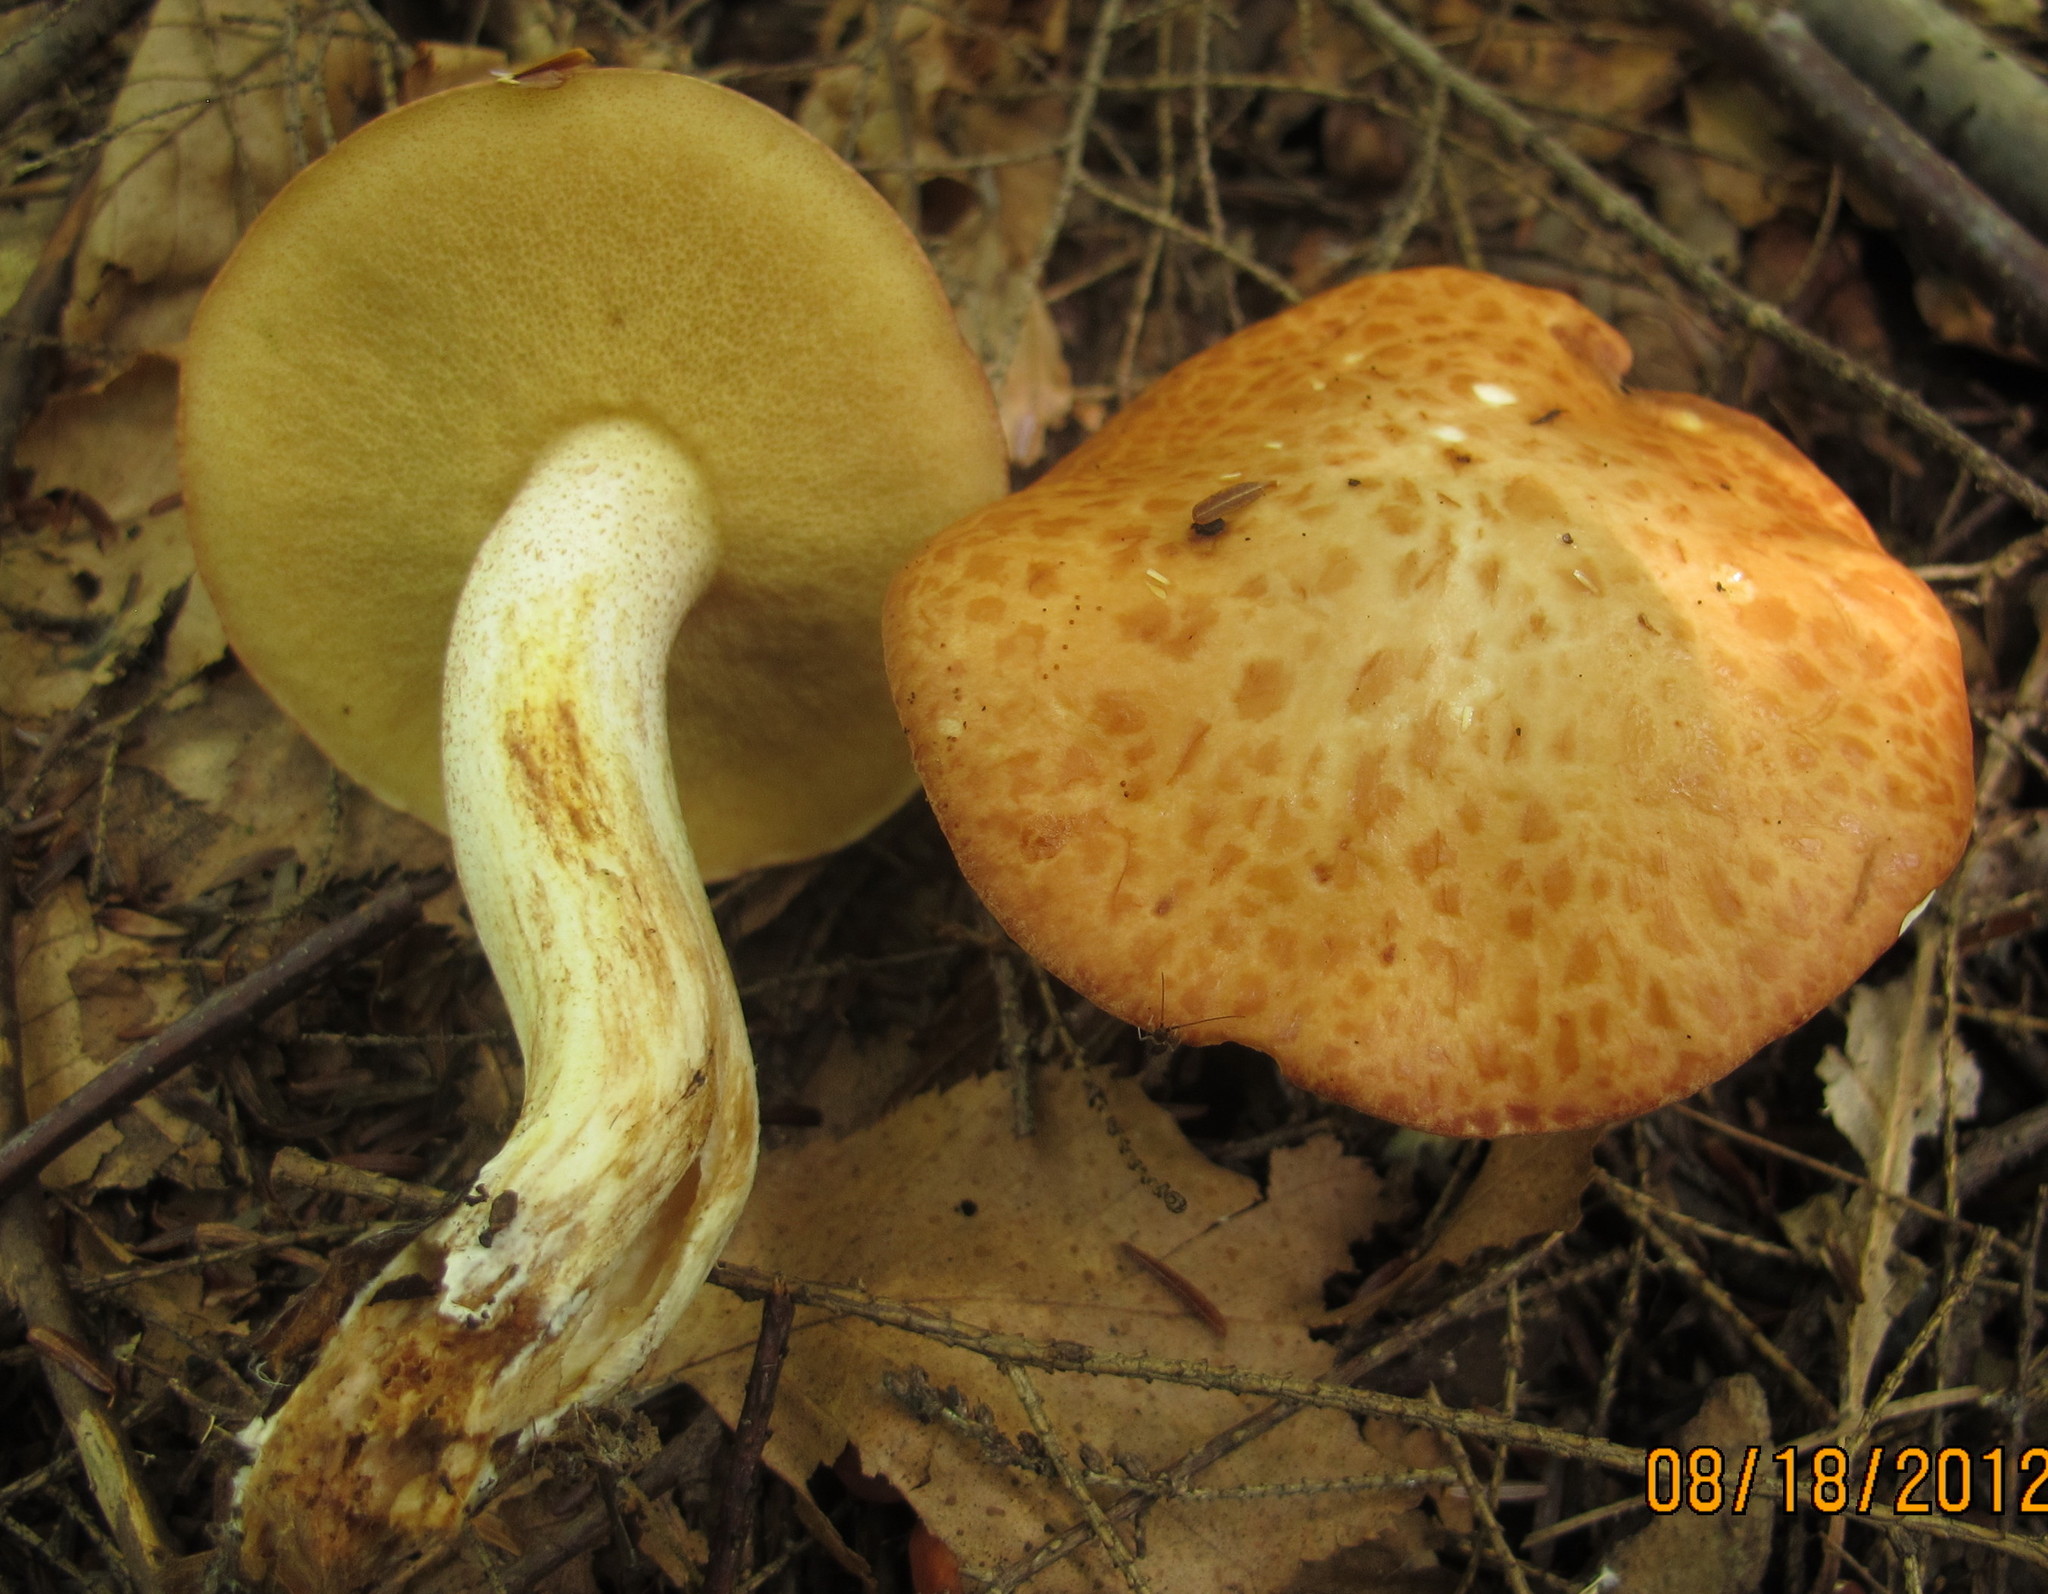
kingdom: Fungi
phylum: Basidiomycota
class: Agaricomycetes
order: Boletales
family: Suillaceae
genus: Suillus
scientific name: Suillus granulatus
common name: Weeping bolete
